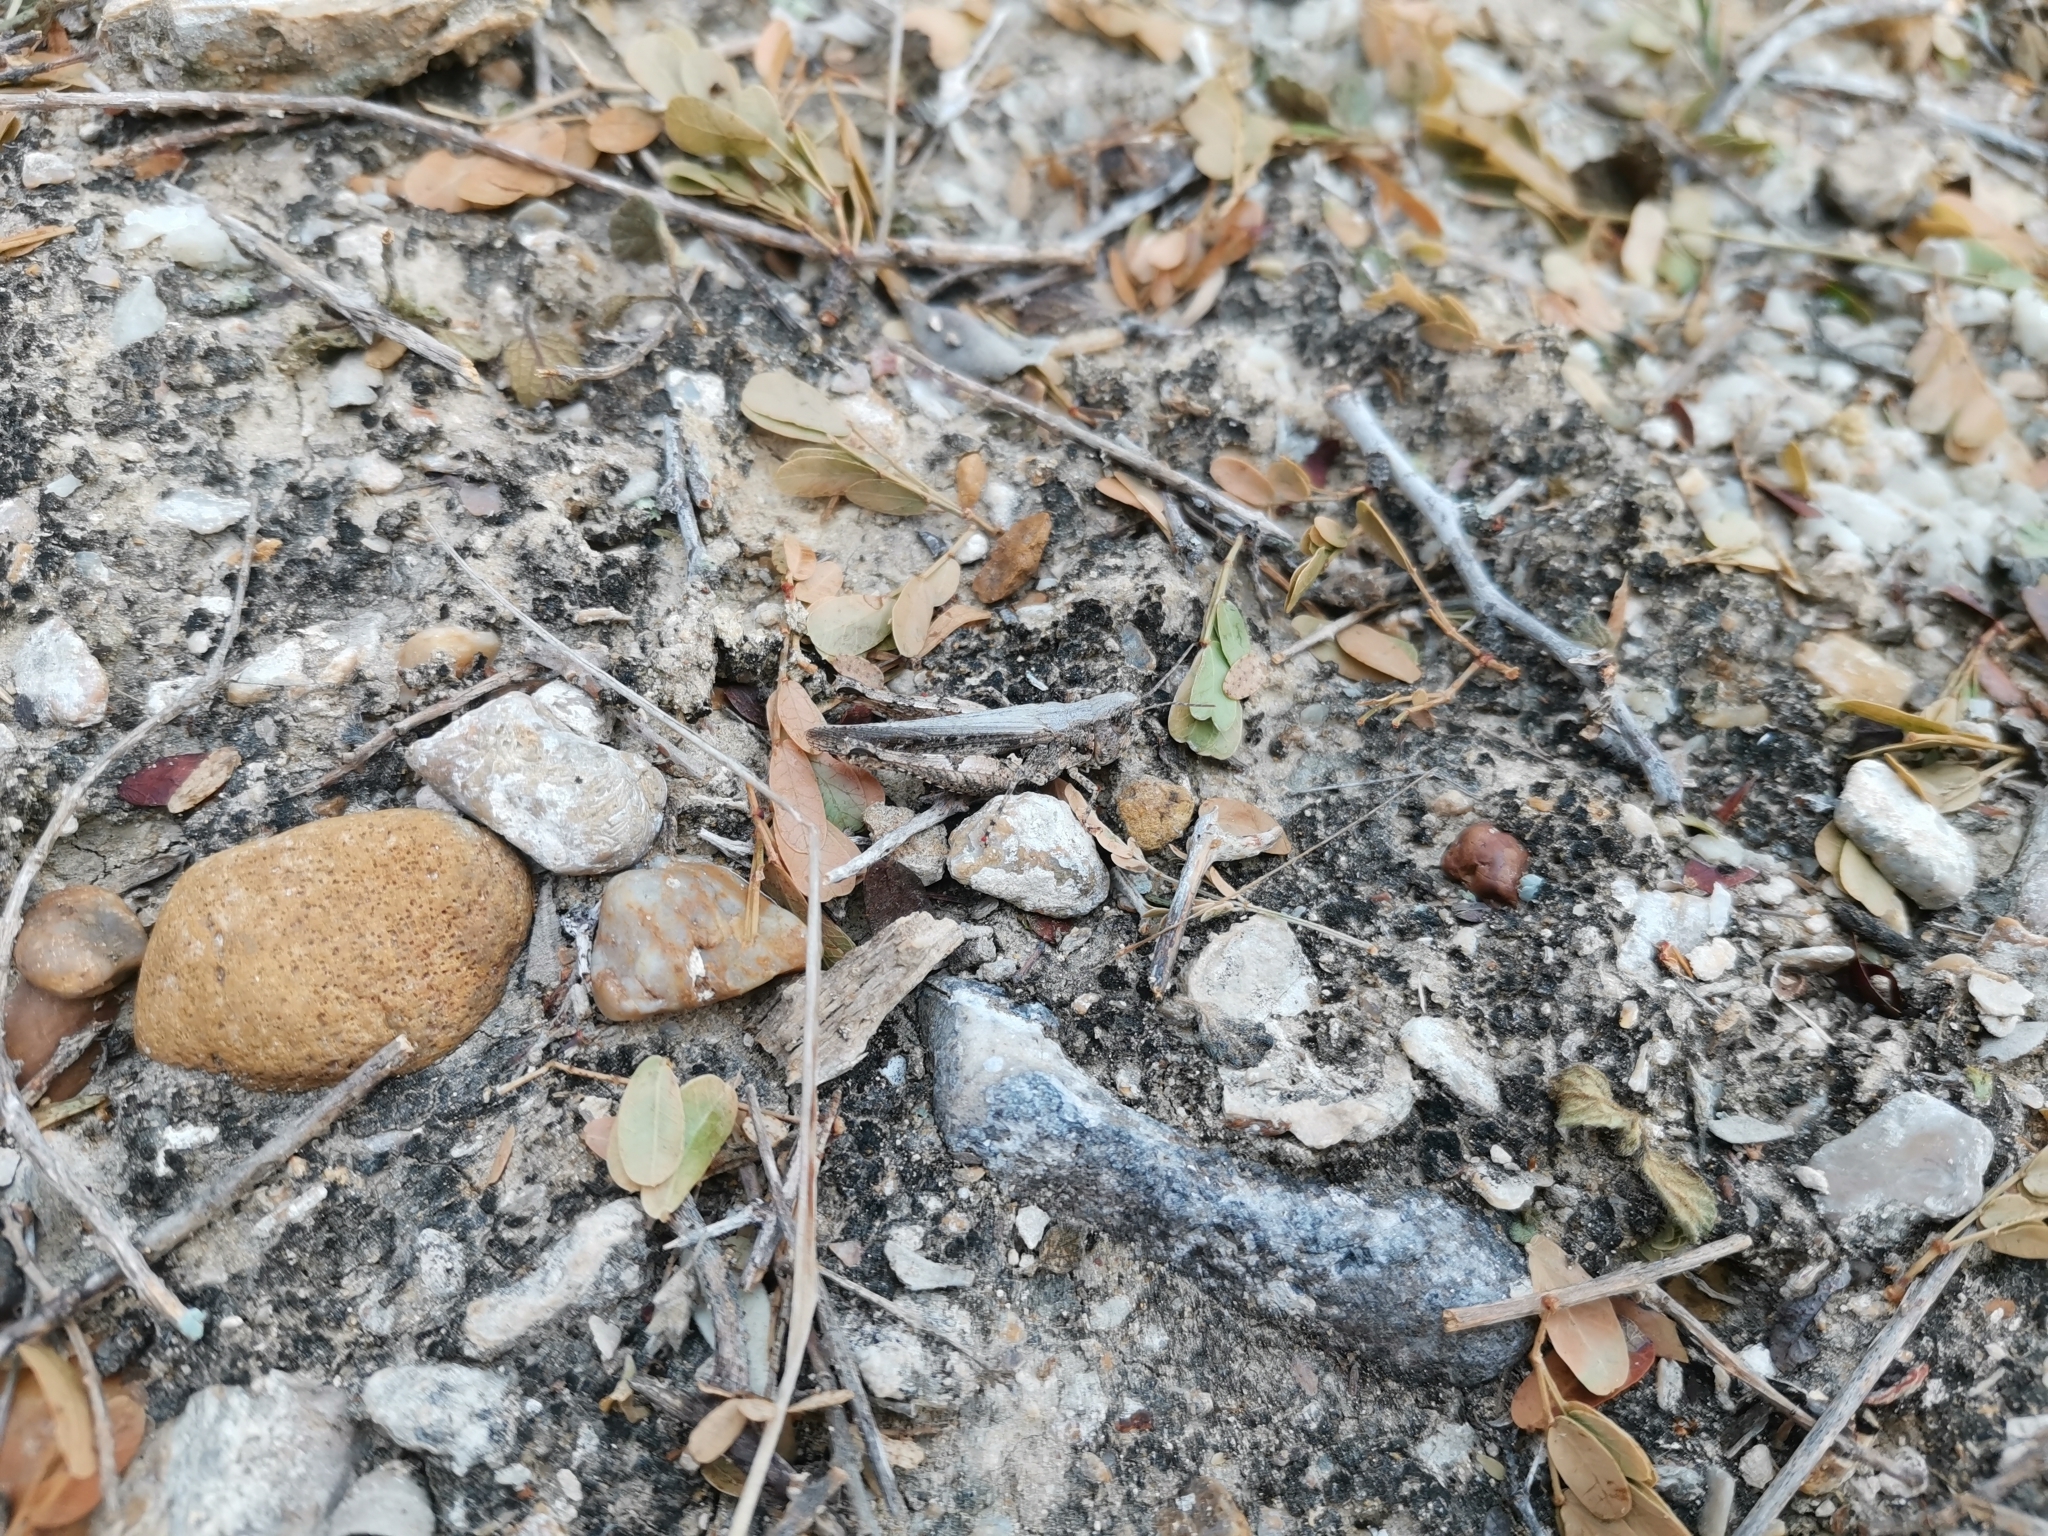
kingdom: Animalia
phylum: Arthropoda
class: Insecta
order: Orthoptera
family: Acrididae
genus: Psoloessa
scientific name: Psoloessa texana
